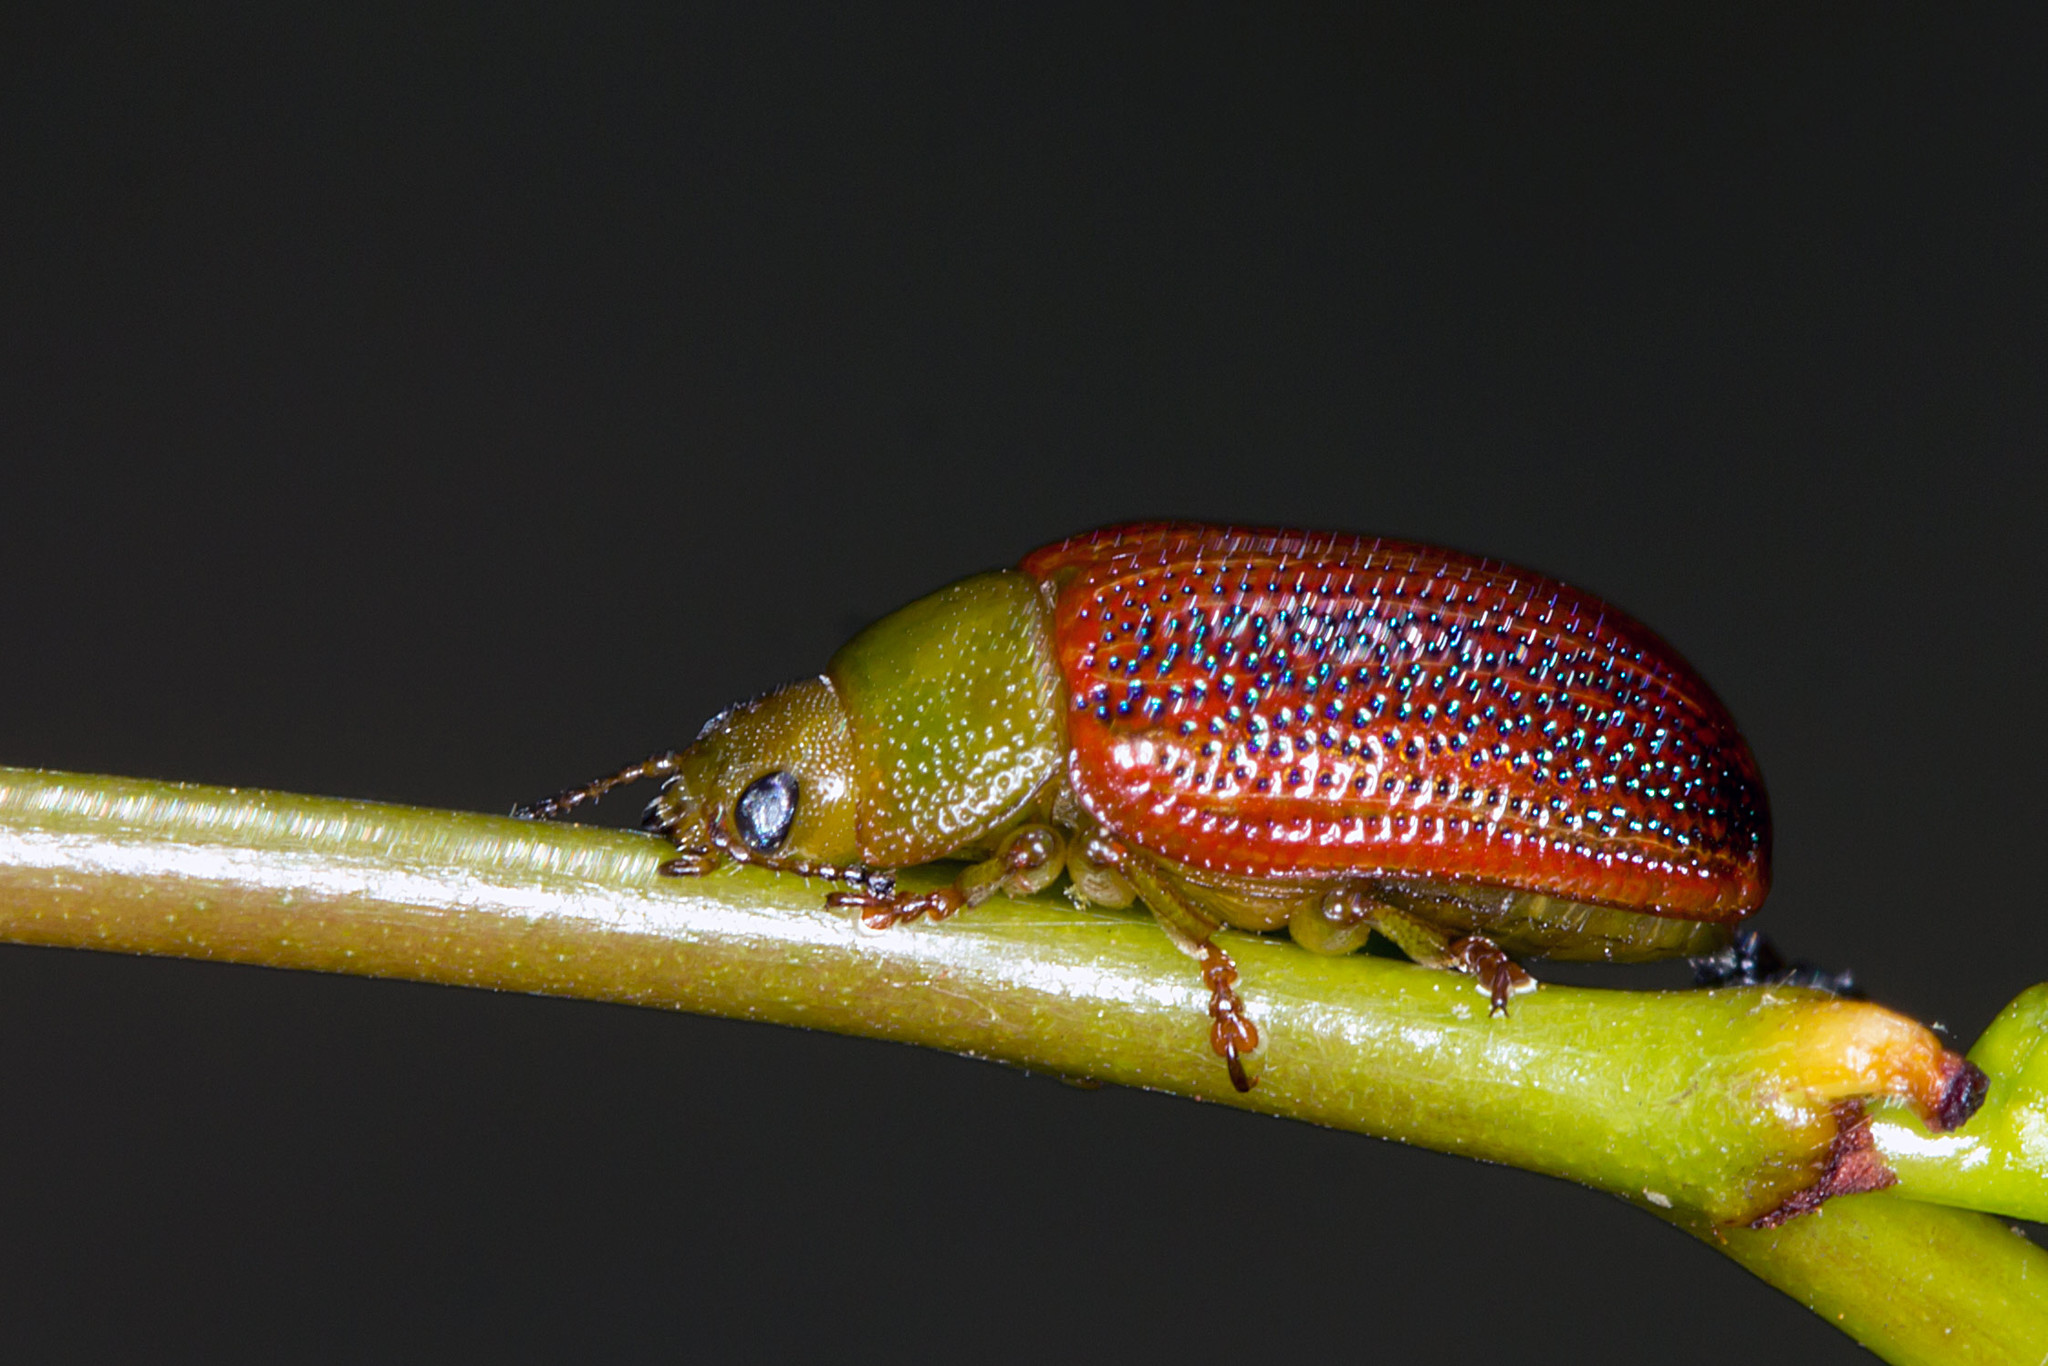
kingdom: Animalia
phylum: Arthropoda
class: Insecta
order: Coleoptera
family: Chrysomelidae
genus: Calomela
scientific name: Calomela
